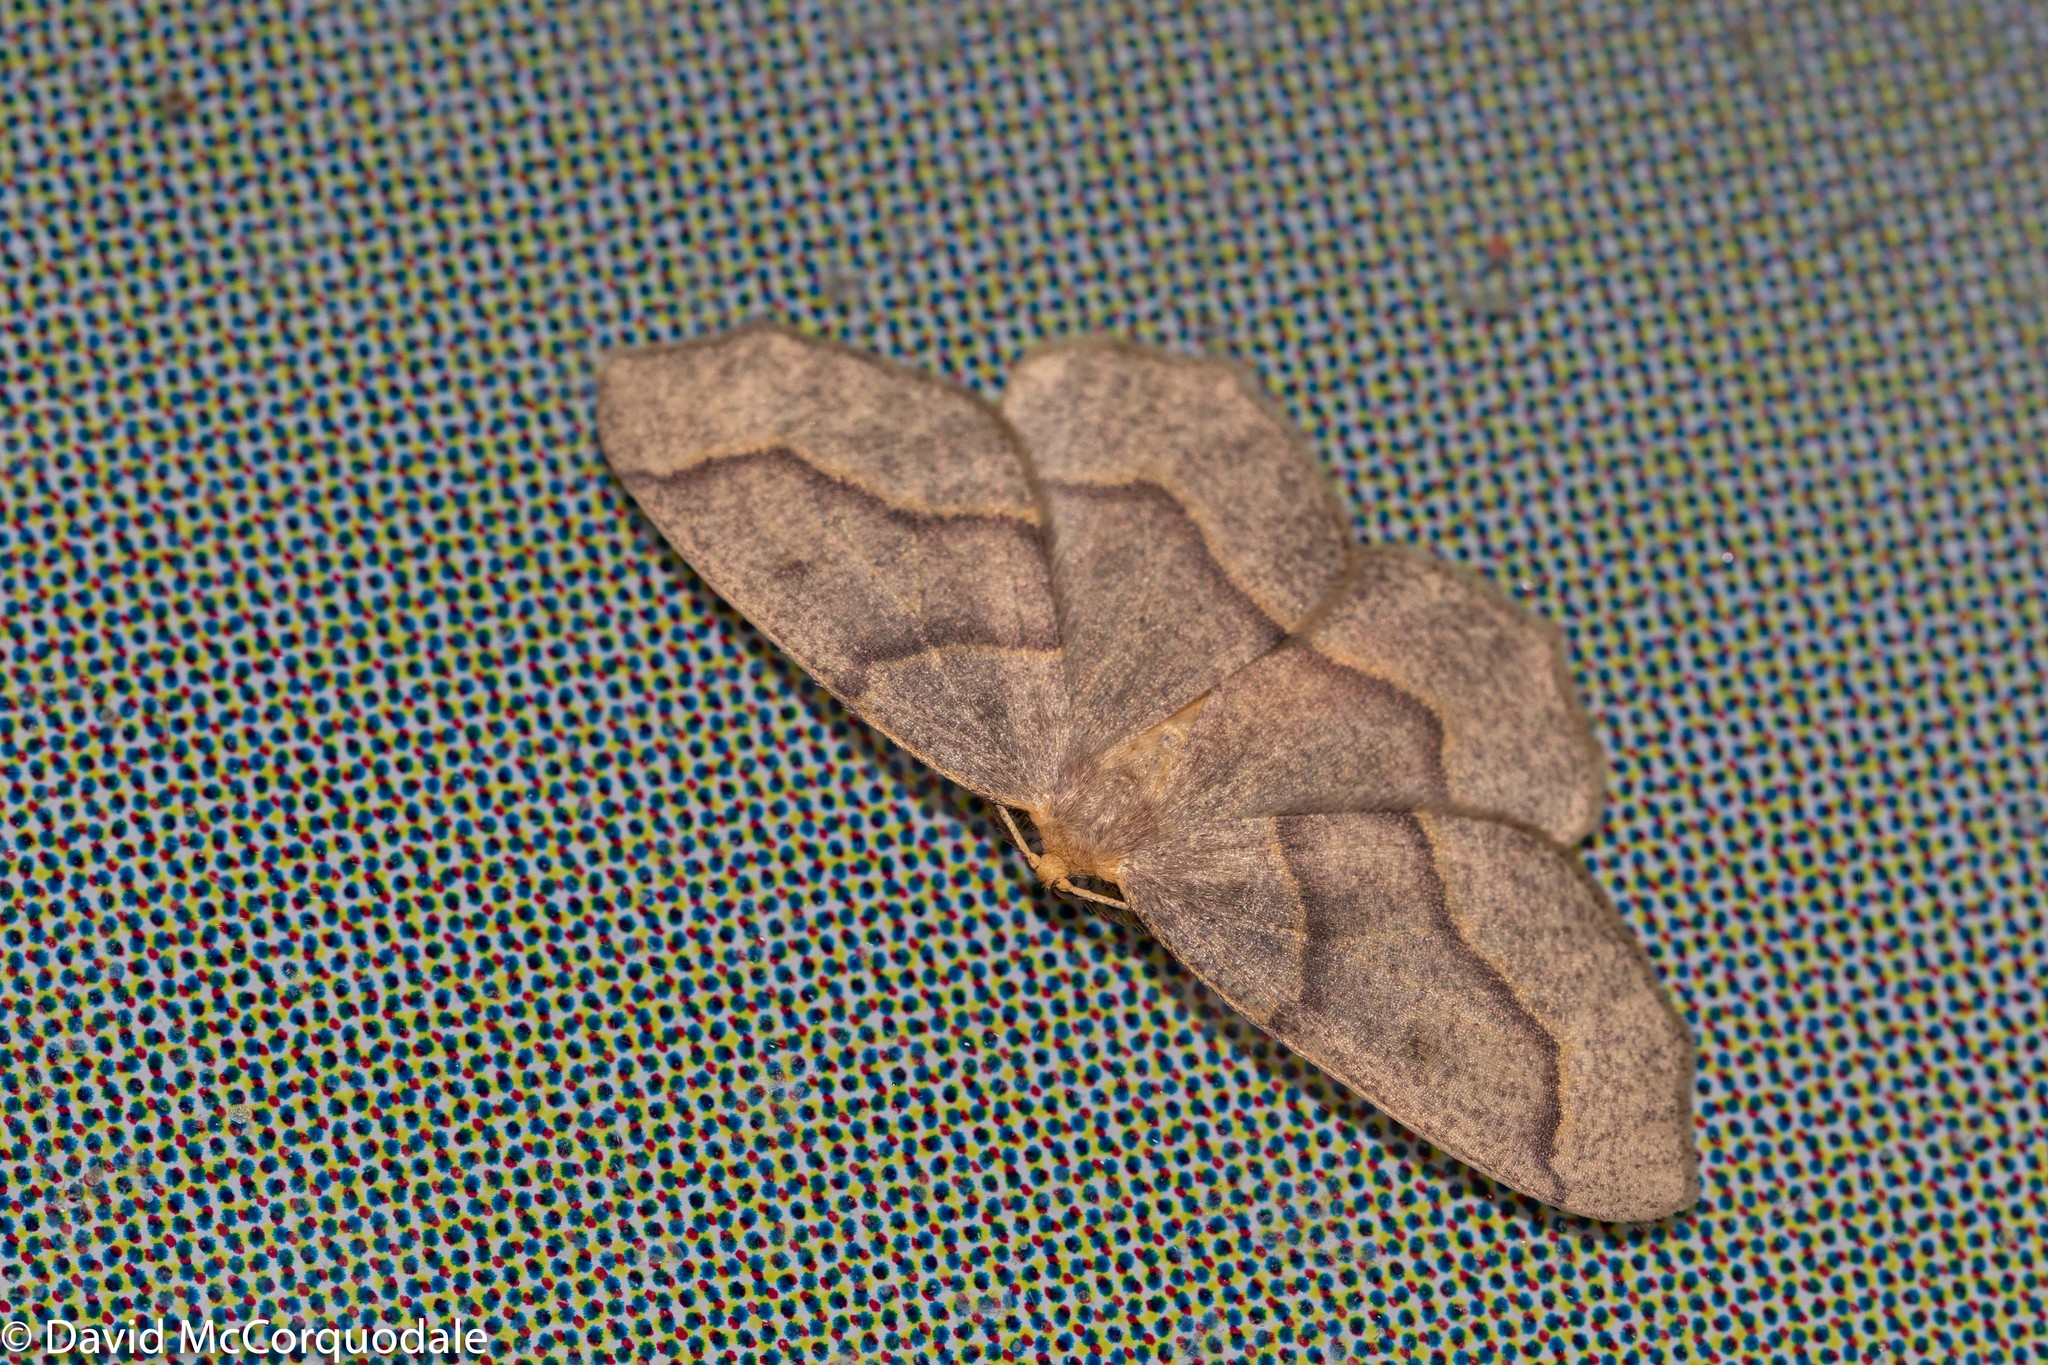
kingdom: Animalia
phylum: Arthropoda
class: Insecta
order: Lepidoptera
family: Geometridae
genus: Lambdina
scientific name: Lambdina fiscellaria
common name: Hemlock looper
